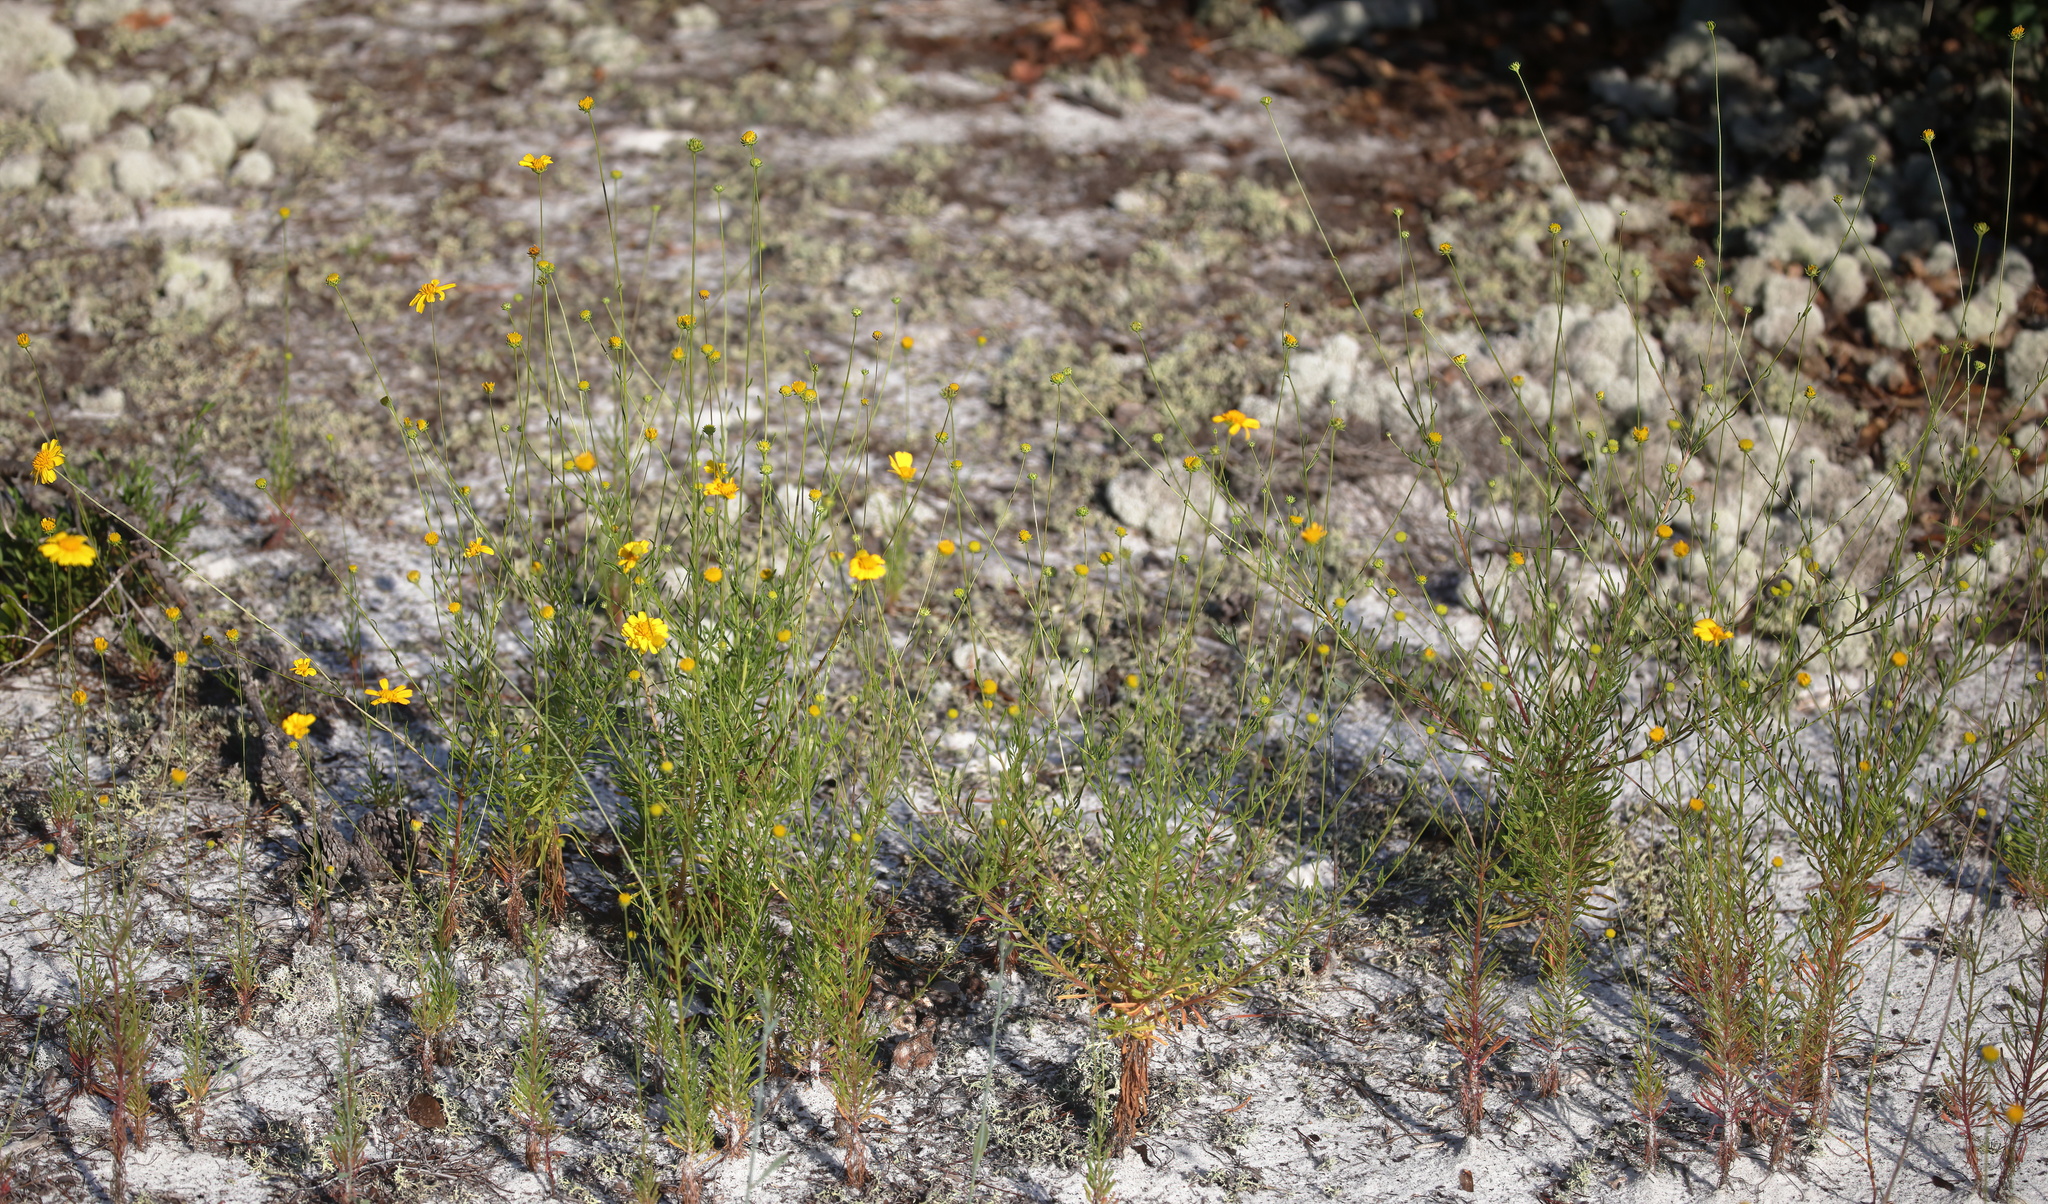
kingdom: Plantae
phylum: Tracheophyta
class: Magnoliopsida
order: Asterales
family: Asteraceae
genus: Balduina
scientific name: Balduina angustifolia
